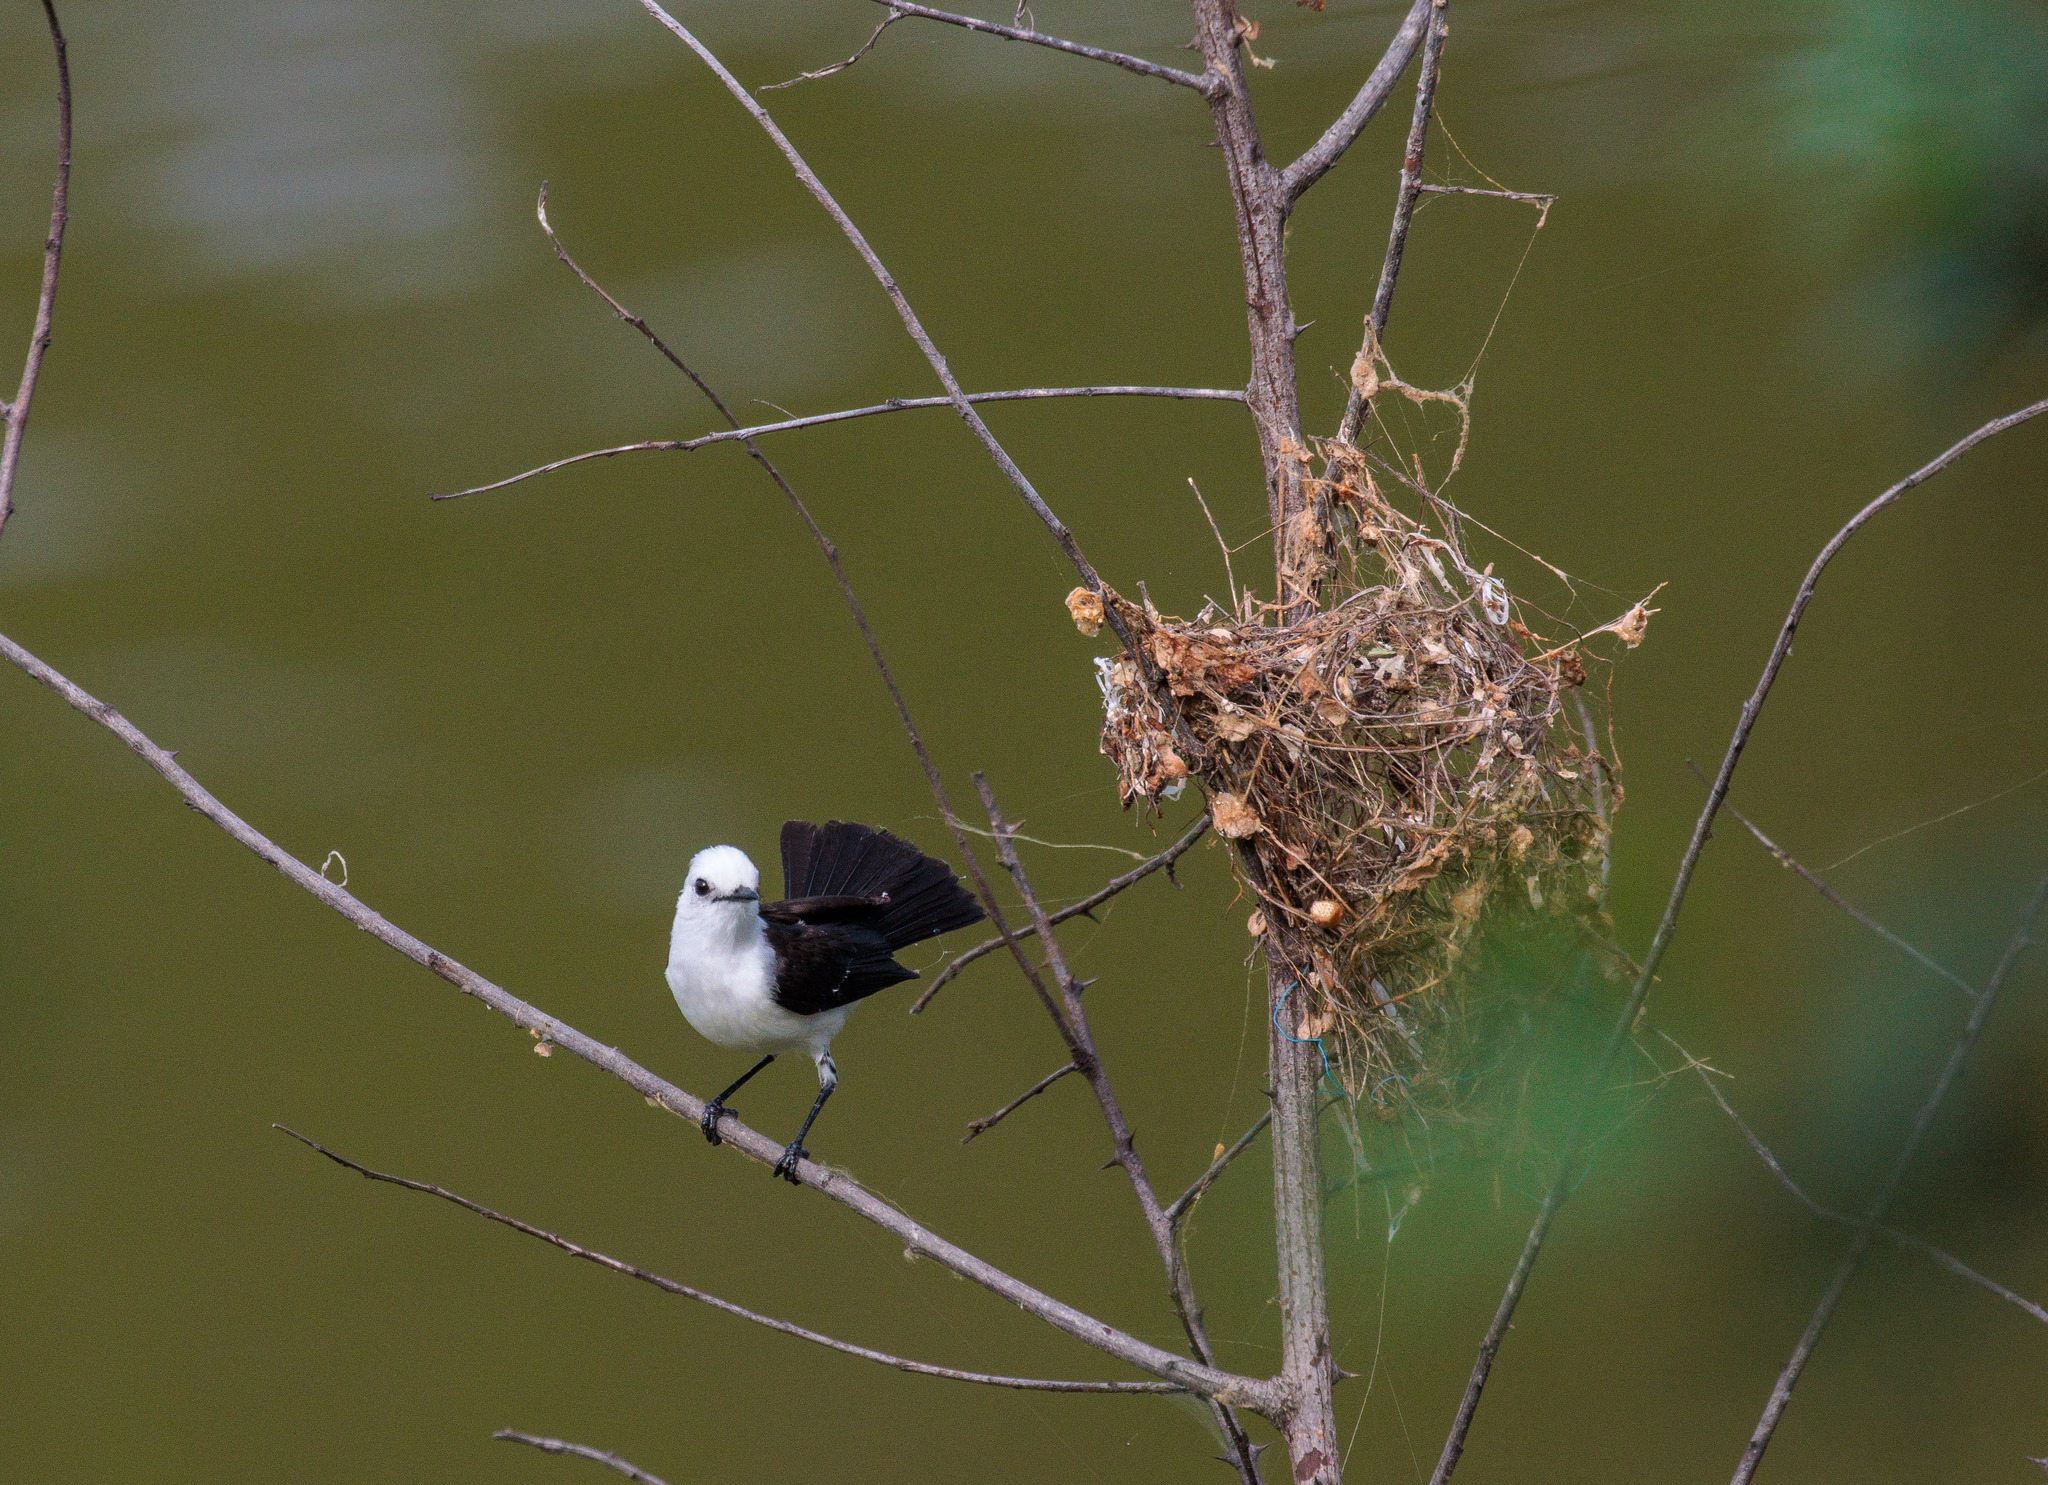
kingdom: Animalia
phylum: Chordata
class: Aves
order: Passeriformes
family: Tyrannidae
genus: Fluvicola
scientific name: Fluvicola pica
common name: Pied water-tyrant
